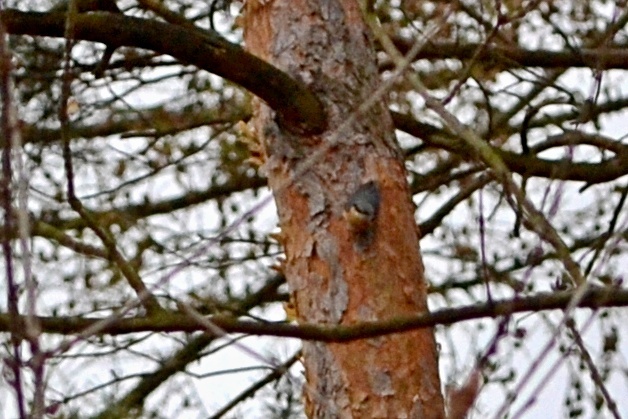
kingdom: Animalia
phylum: Chordata
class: Aves
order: Passeriformes
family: Sittidae
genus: Sitta
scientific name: Sitta europaea
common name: Eurasian nuthatch
